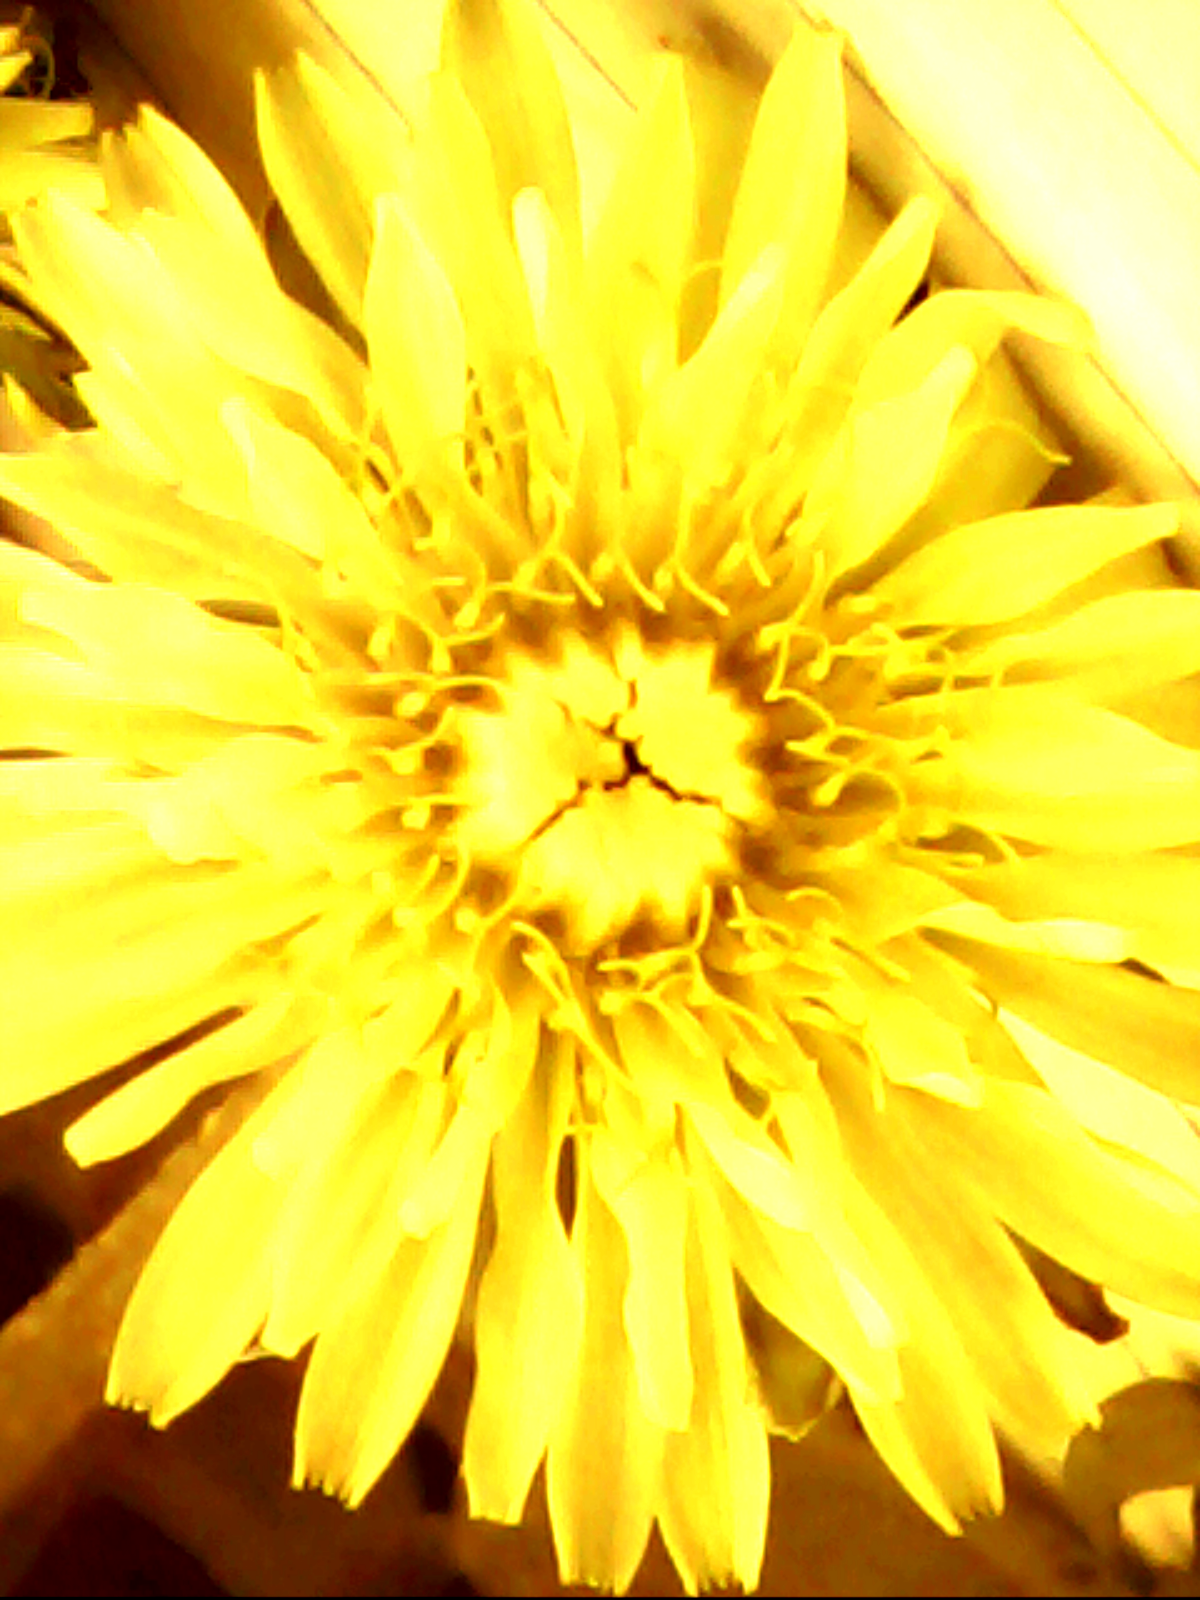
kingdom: Plantae
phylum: Tracheophyta
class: Magnoliopsida
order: Asterales
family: Asteraceae
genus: Taraxacum
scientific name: Taraxacum
